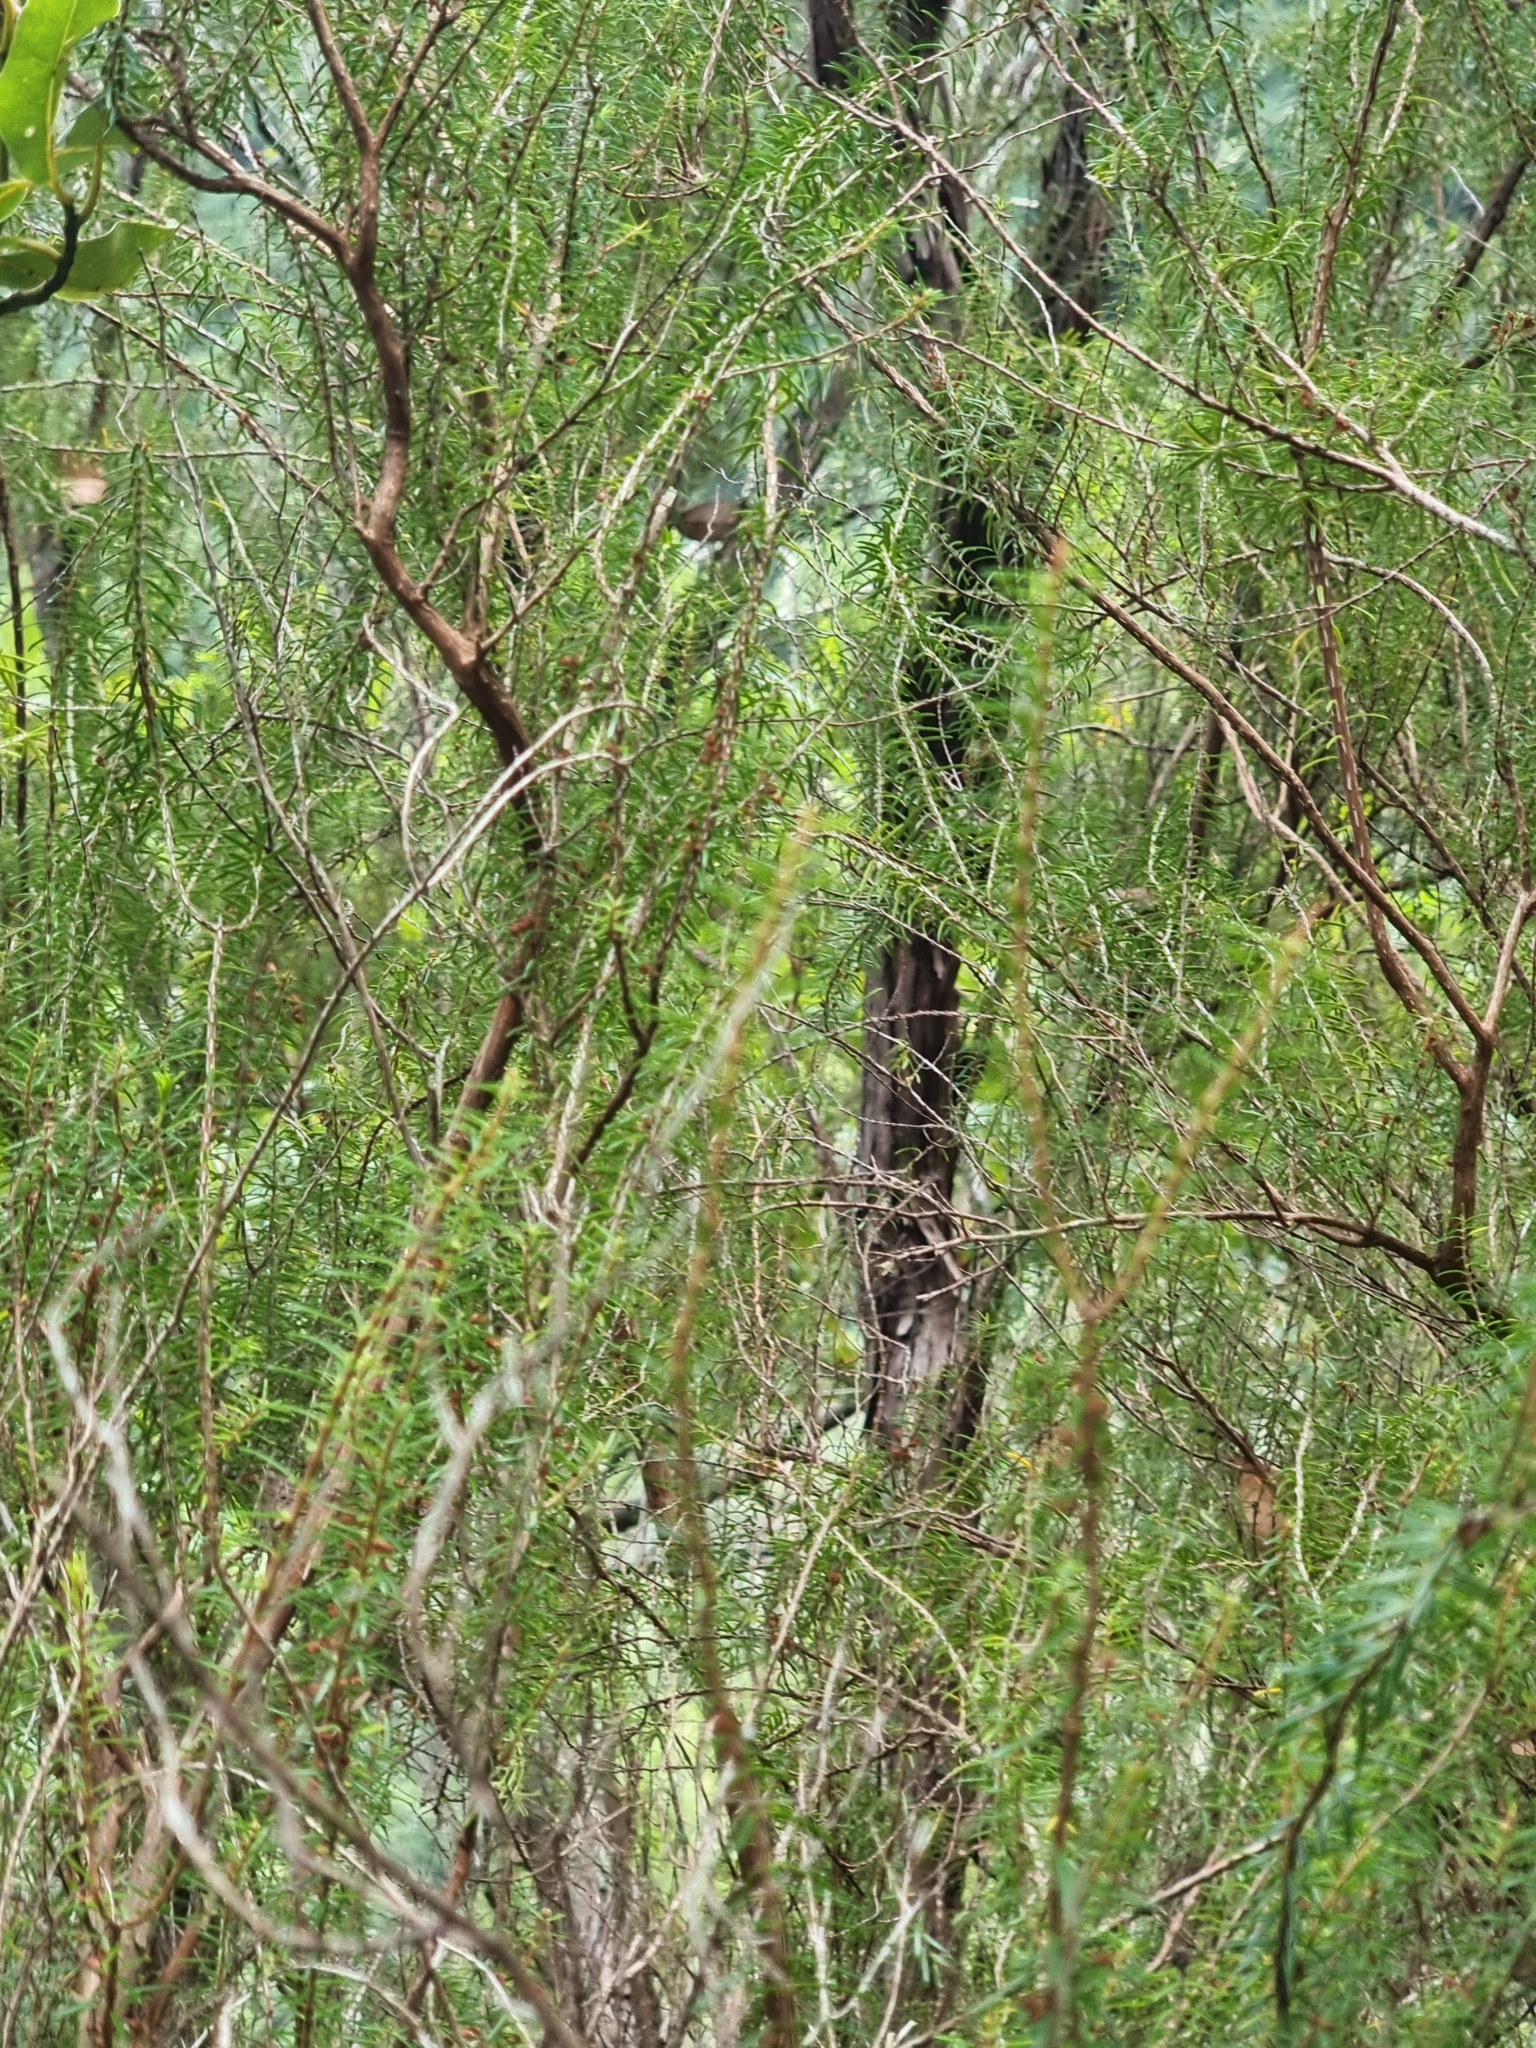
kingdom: Plantae
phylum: Tracheophyta
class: Magnoliopsida
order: Ericales
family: Ericaceae
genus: Erica
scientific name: Erica platycodon
